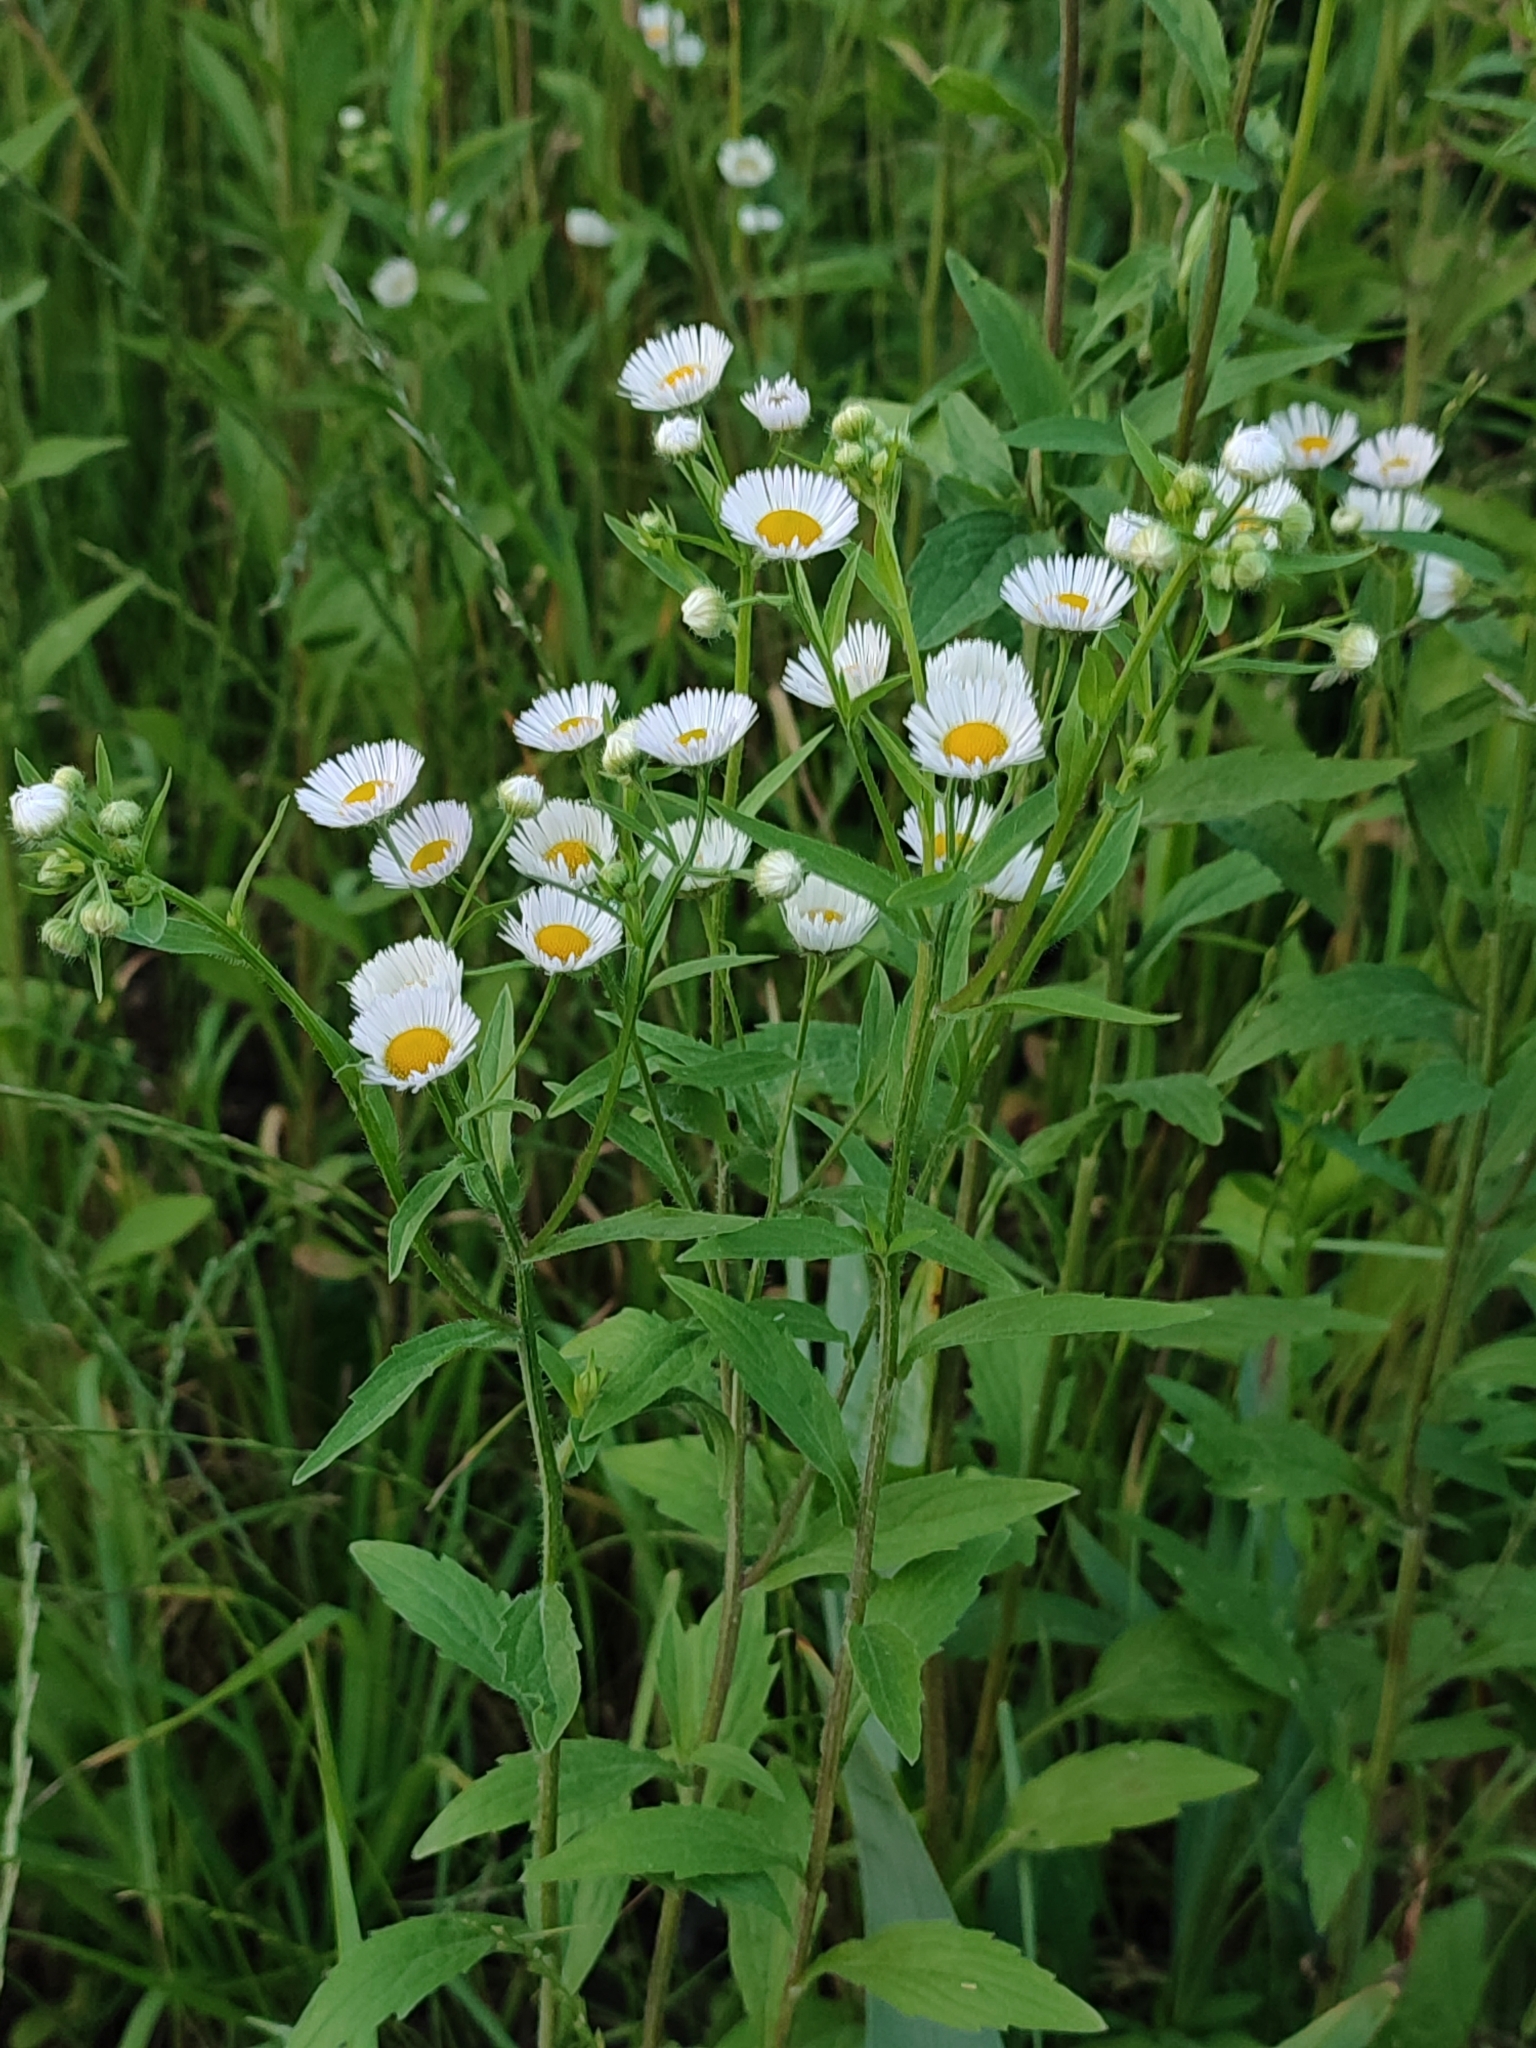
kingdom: Plantae
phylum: Tracheophyta
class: Magnoliopsida
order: Asterales
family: Asteraceae
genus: Erigeron
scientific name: Erigeron annuus
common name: Tall fleabane
